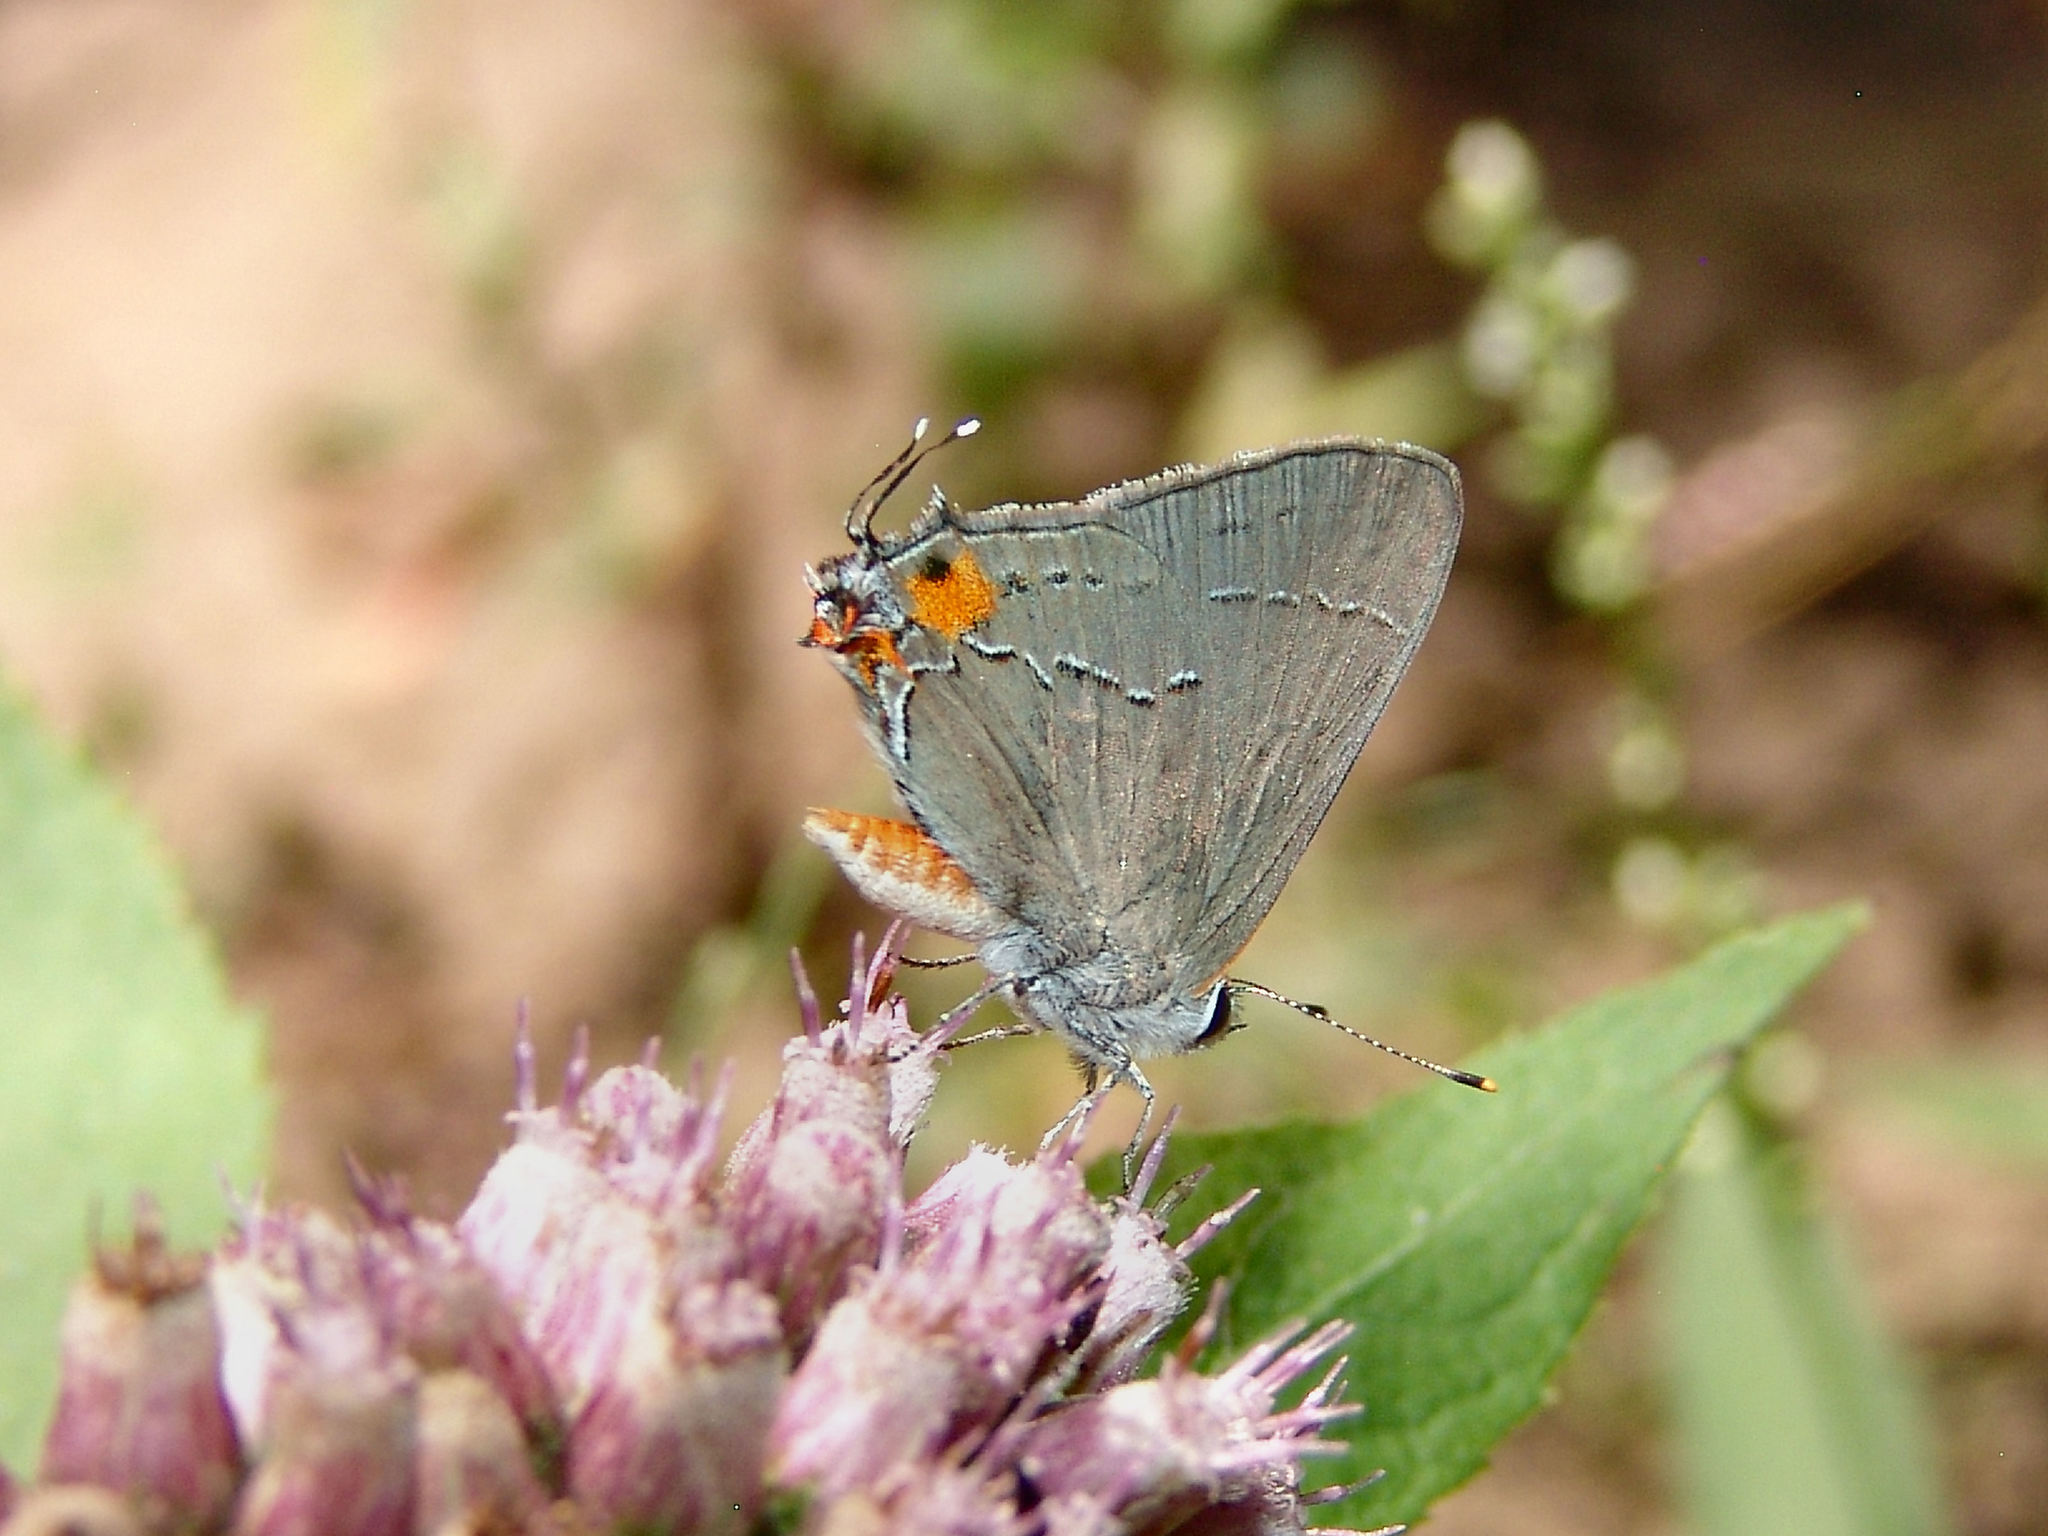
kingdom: Animalia
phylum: Arthropoda
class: Insecta
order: Lepidoptera
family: Lycaenidae
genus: Strymon
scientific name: Strymon melinus
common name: Gray hairstreak
